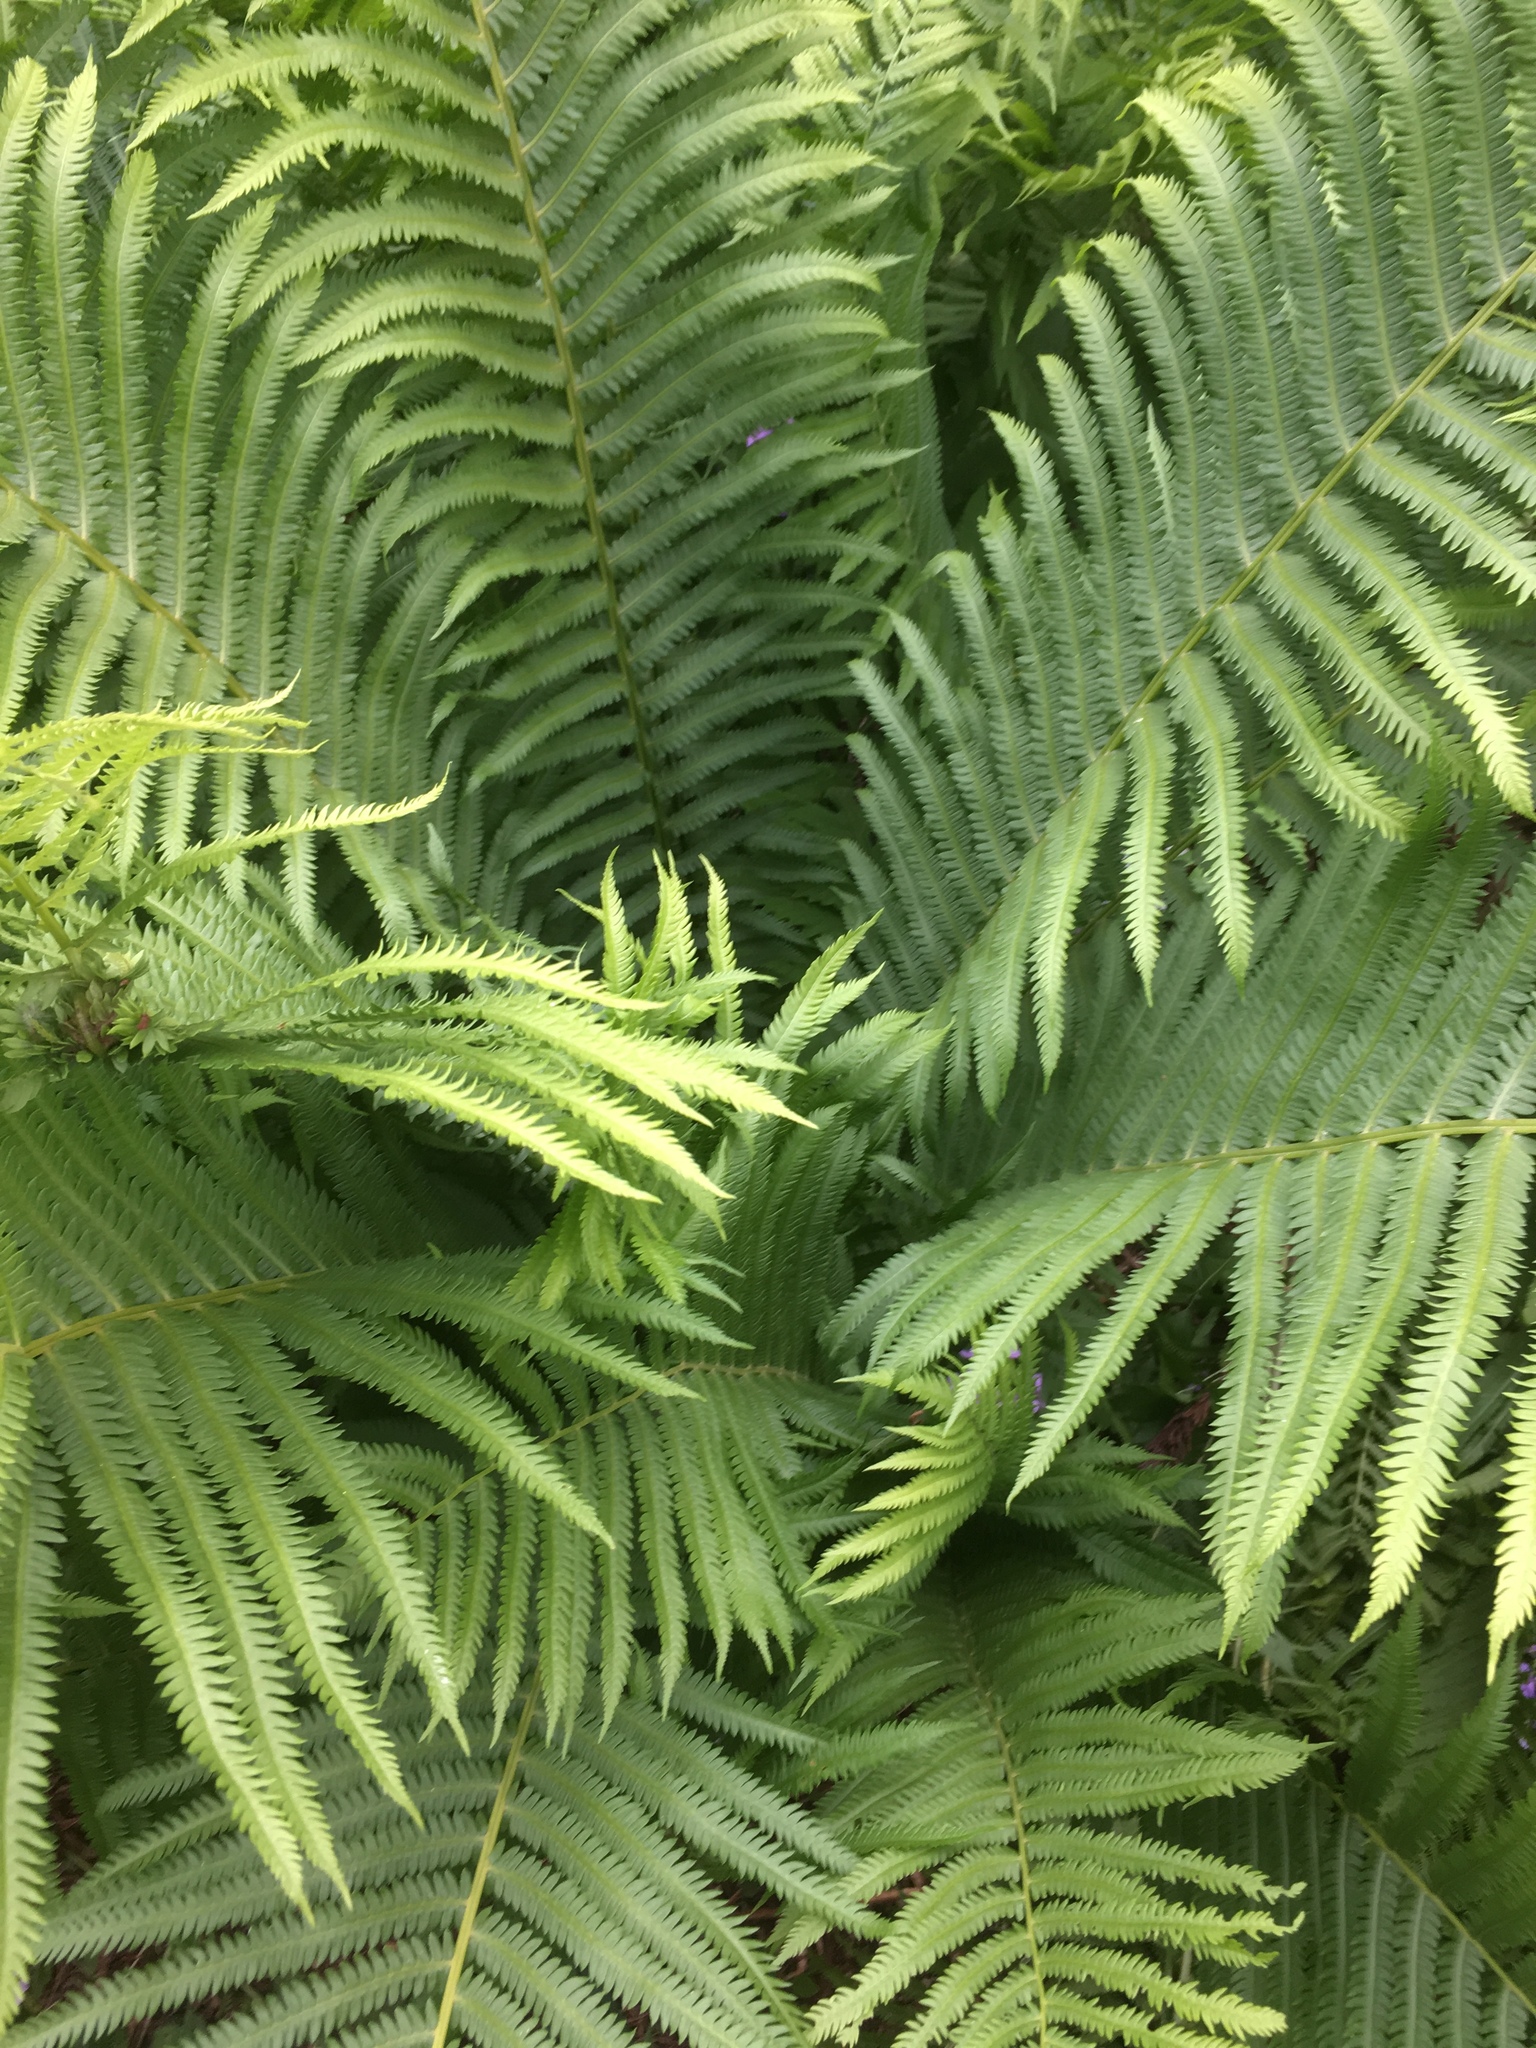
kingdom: Plantae
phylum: Tracheophyta
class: Polypodiopsida
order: Polypodiales
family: Onocleaceae
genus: Matteuccia
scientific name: Matteuccia struthiopteris
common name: Ostrich fern
